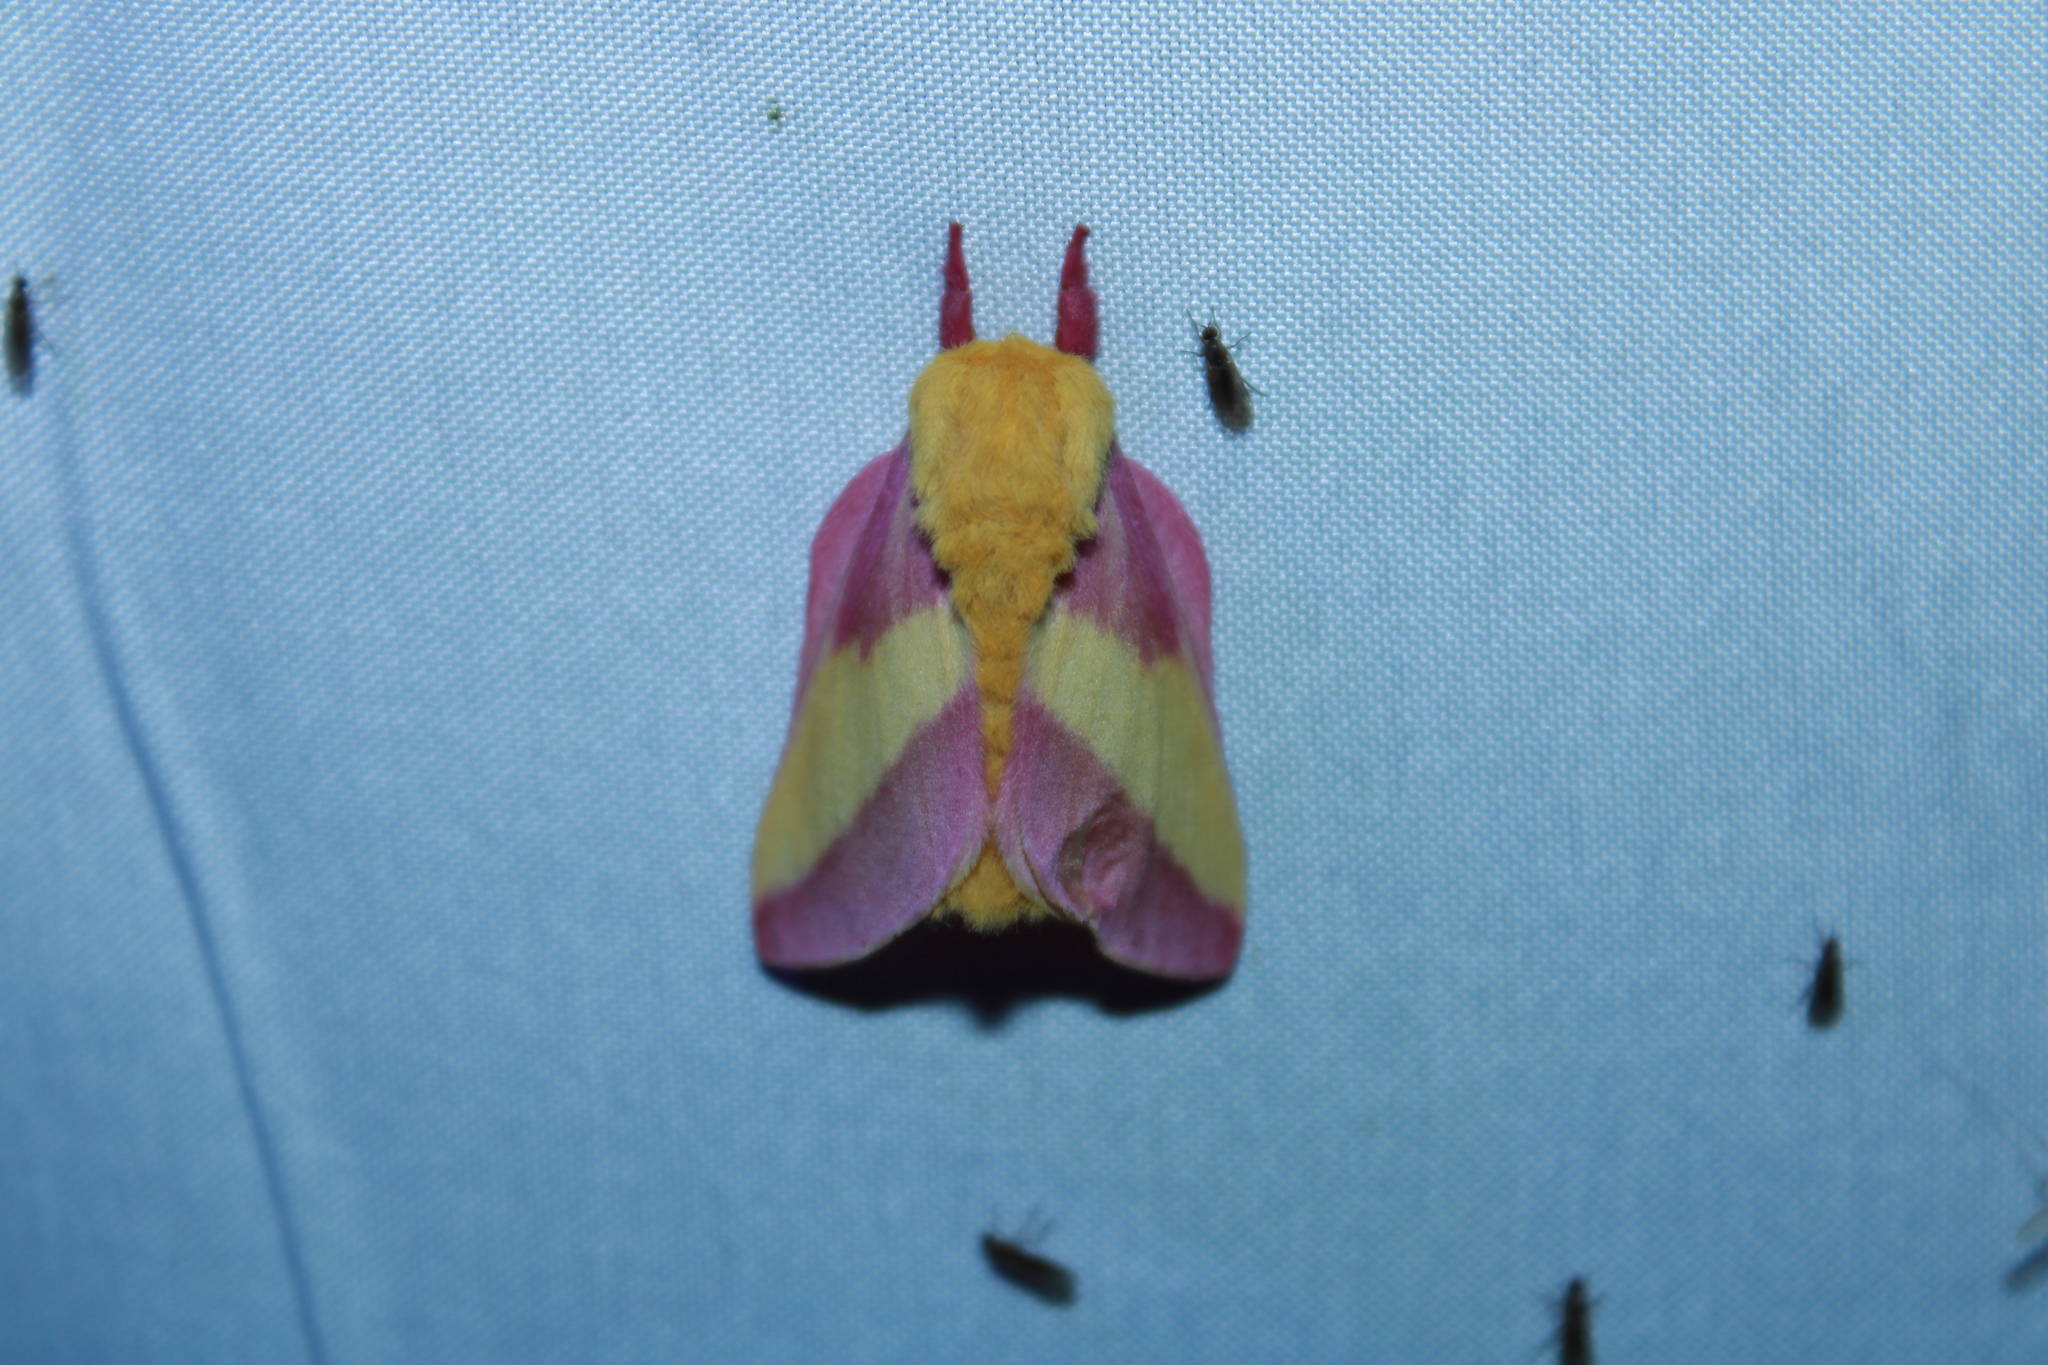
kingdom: Animalia
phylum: Arthropoda
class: Insecta
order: Lepidoptera
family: Saturniidae
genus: Dryocampa
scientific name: Dryocampa rubicunda
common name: Rosy maple moth
